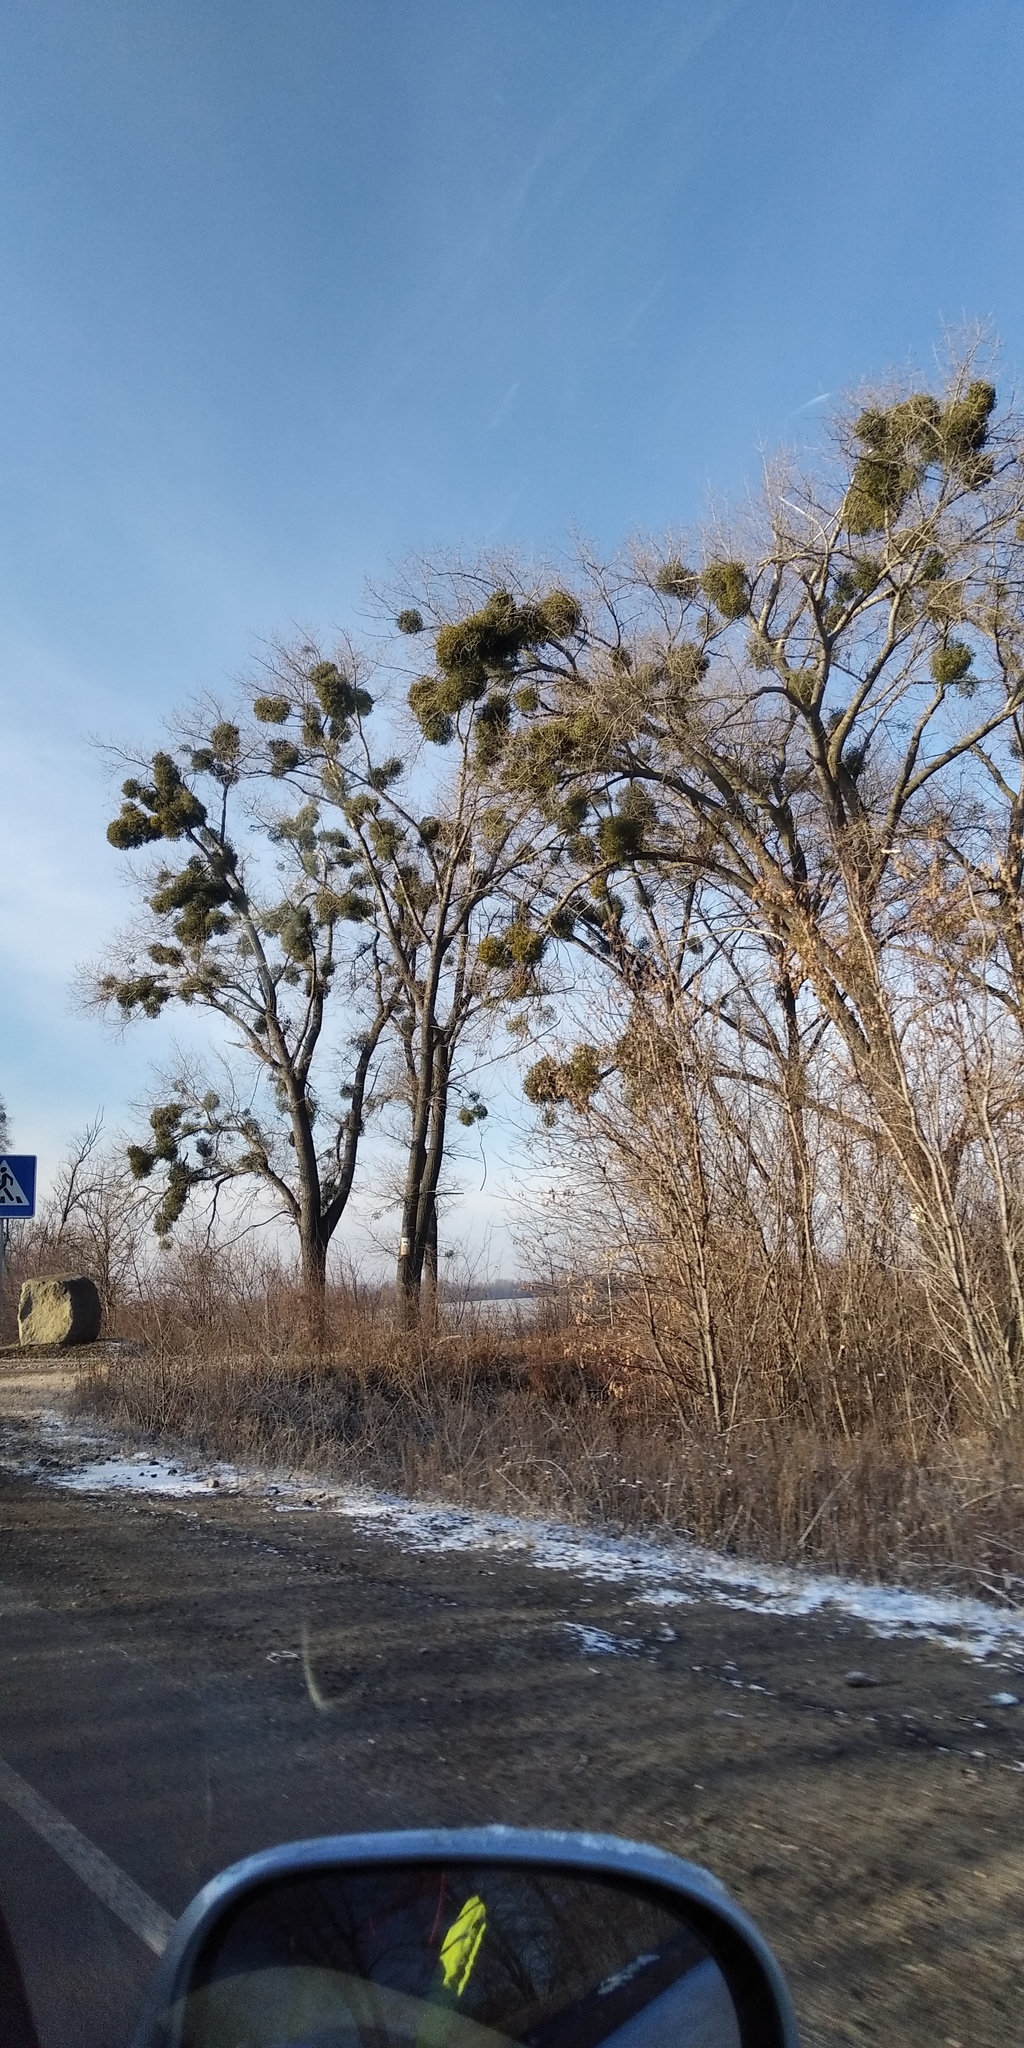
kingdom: Plantae
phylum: Tracheophyta
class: Magnoliopsida
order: Santalales
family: Viscaceae
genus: Viscum
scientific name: Viscum album
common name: Mistletoe
